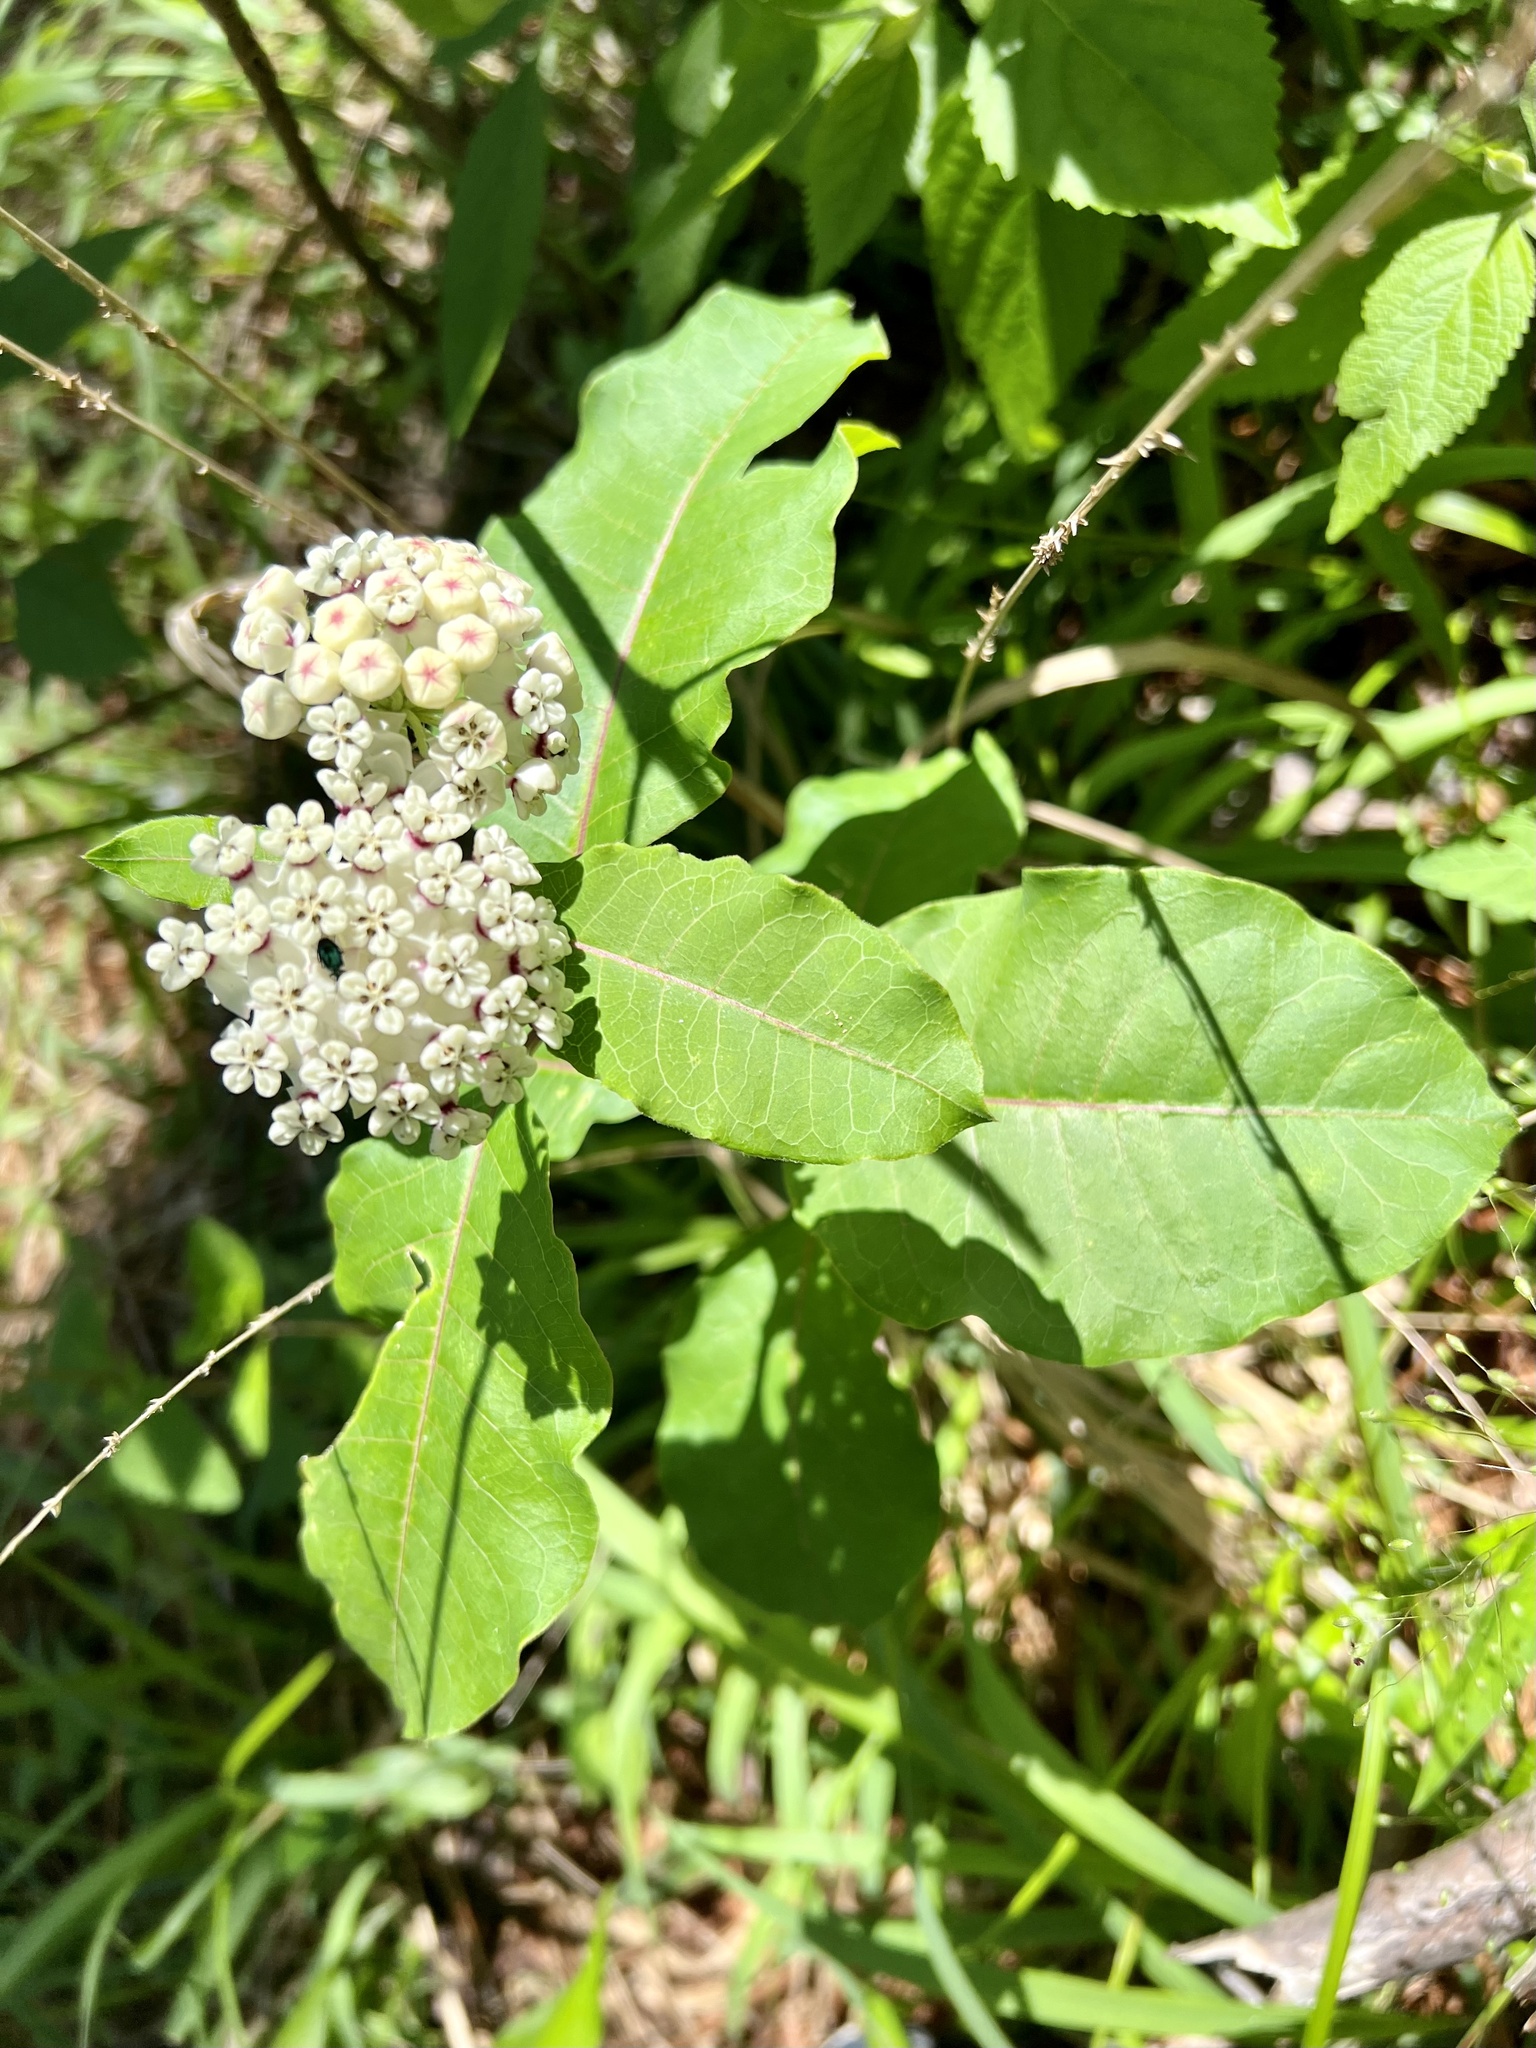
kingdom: Plantae
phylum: Tracheophyta
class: Magnoliopsida
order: Gentianales
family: Apocynaceae
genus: Asclepias
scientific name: Asclepias variegata
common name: Variegated milkweed
